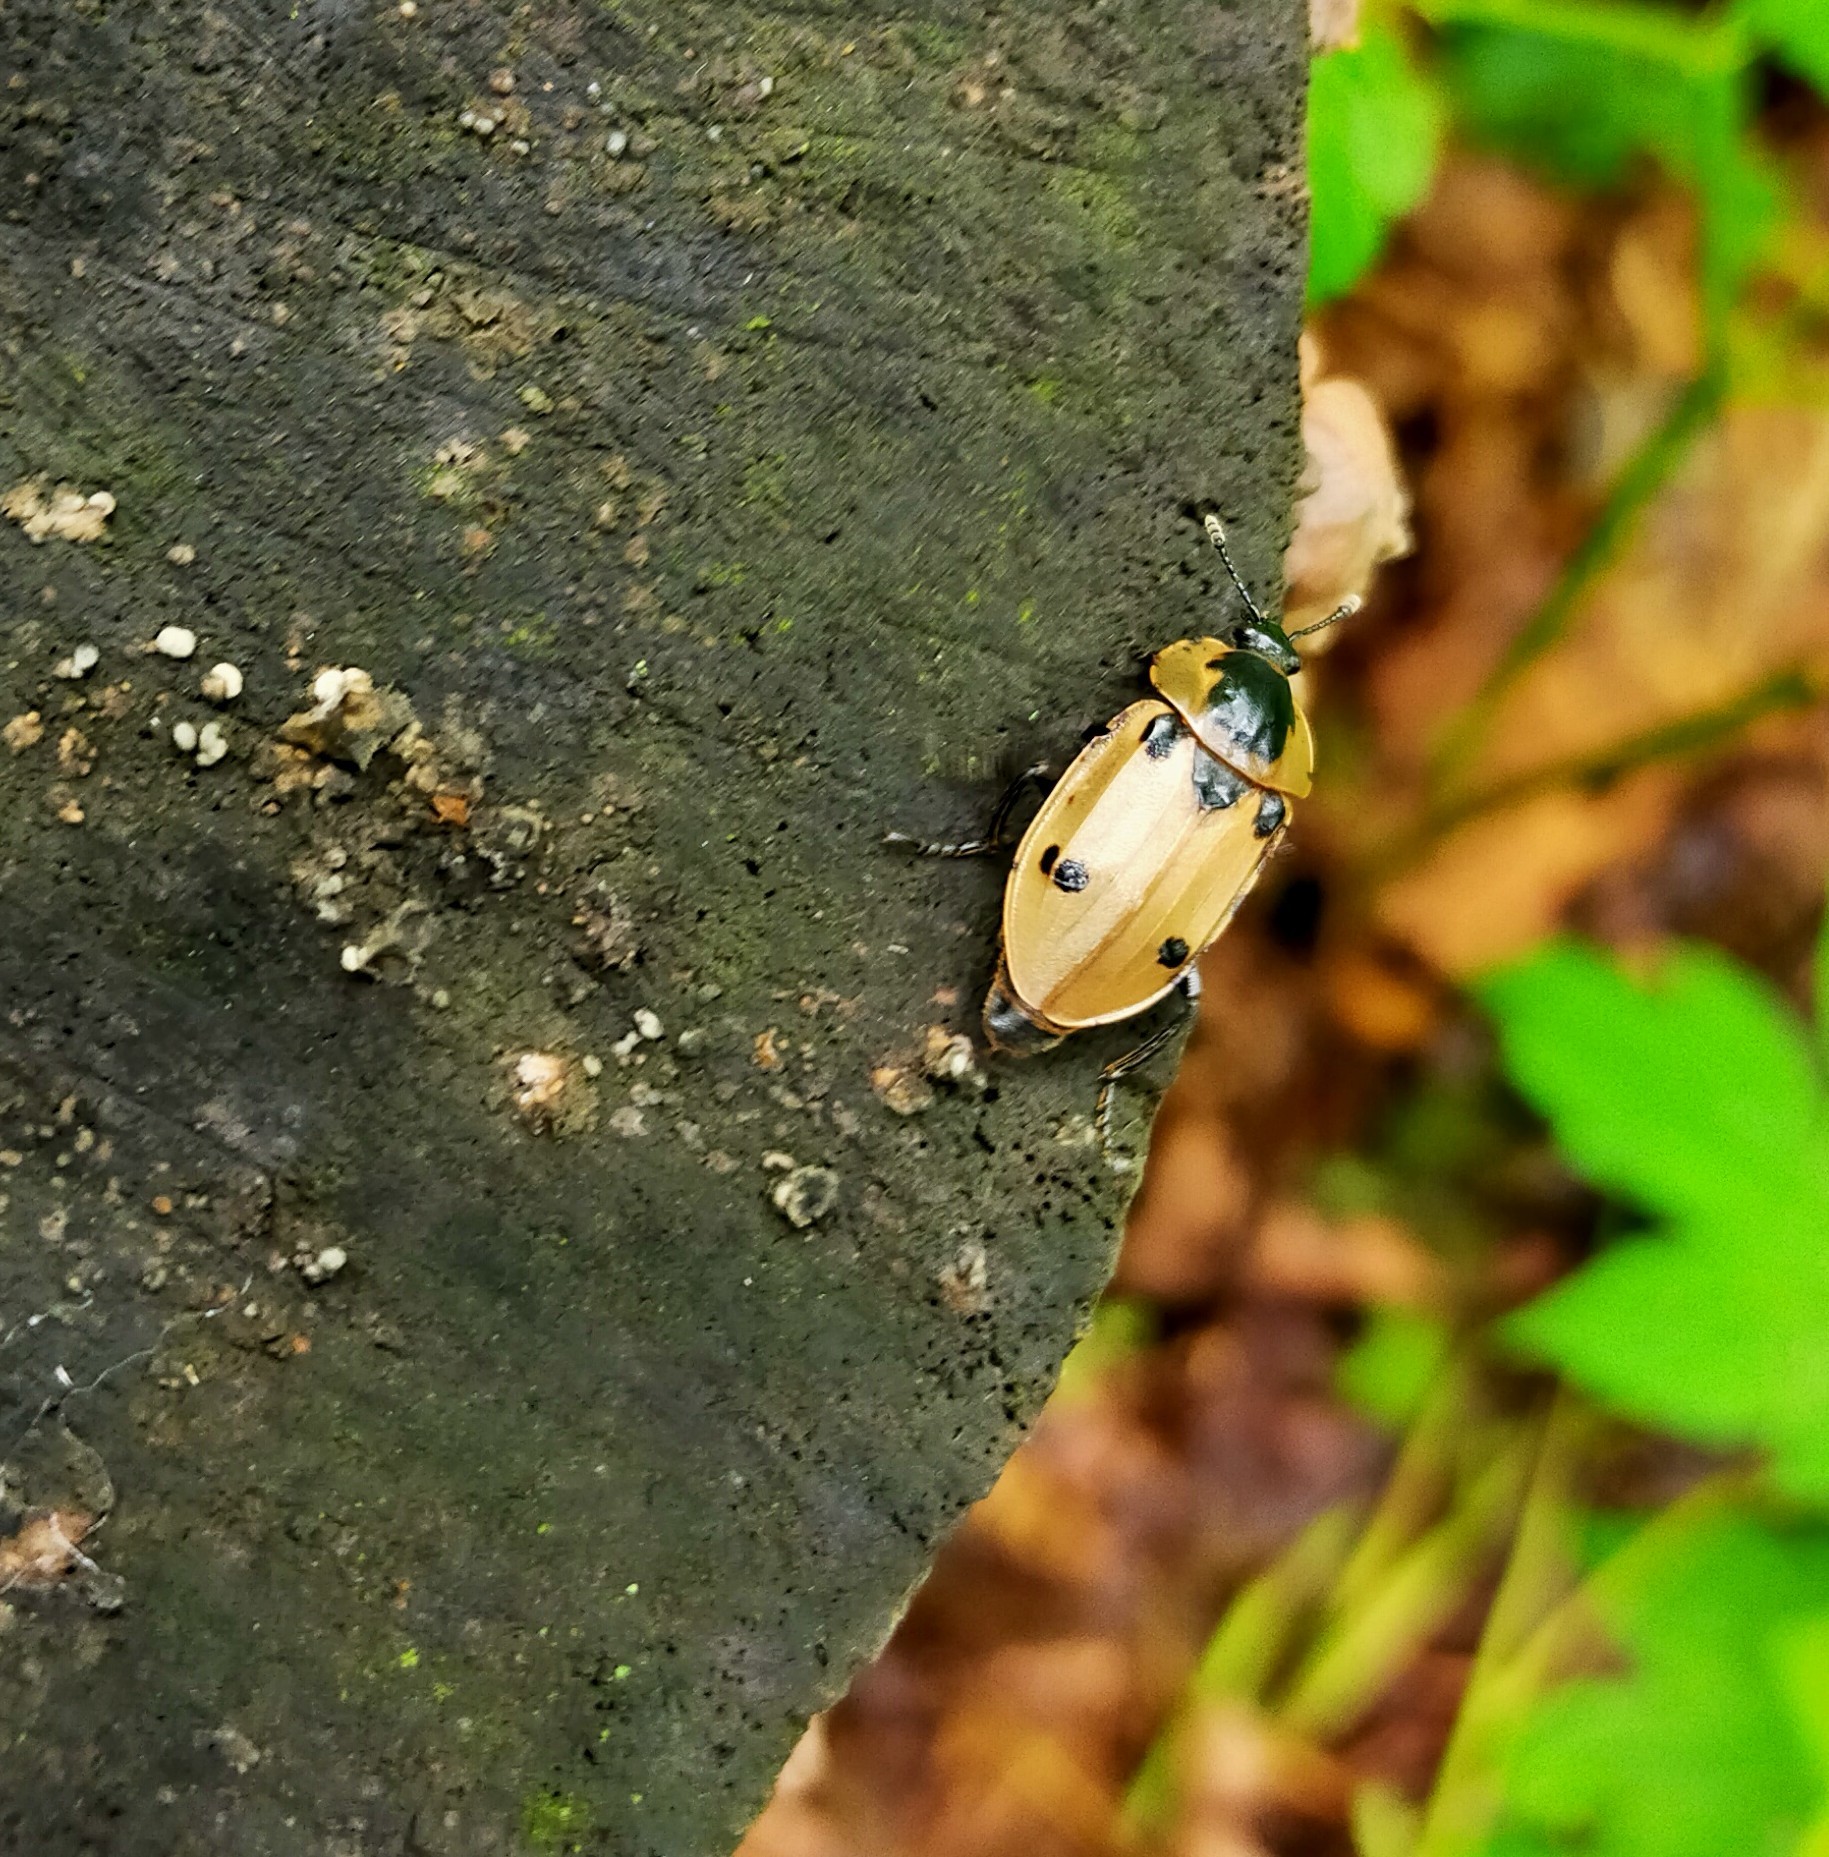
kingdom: Animalia
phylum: Arthropoda
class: Insecta
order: Coleoptera
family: Staphylinidae
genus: Dendroxena
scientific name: Dendroxena sexcarinata
